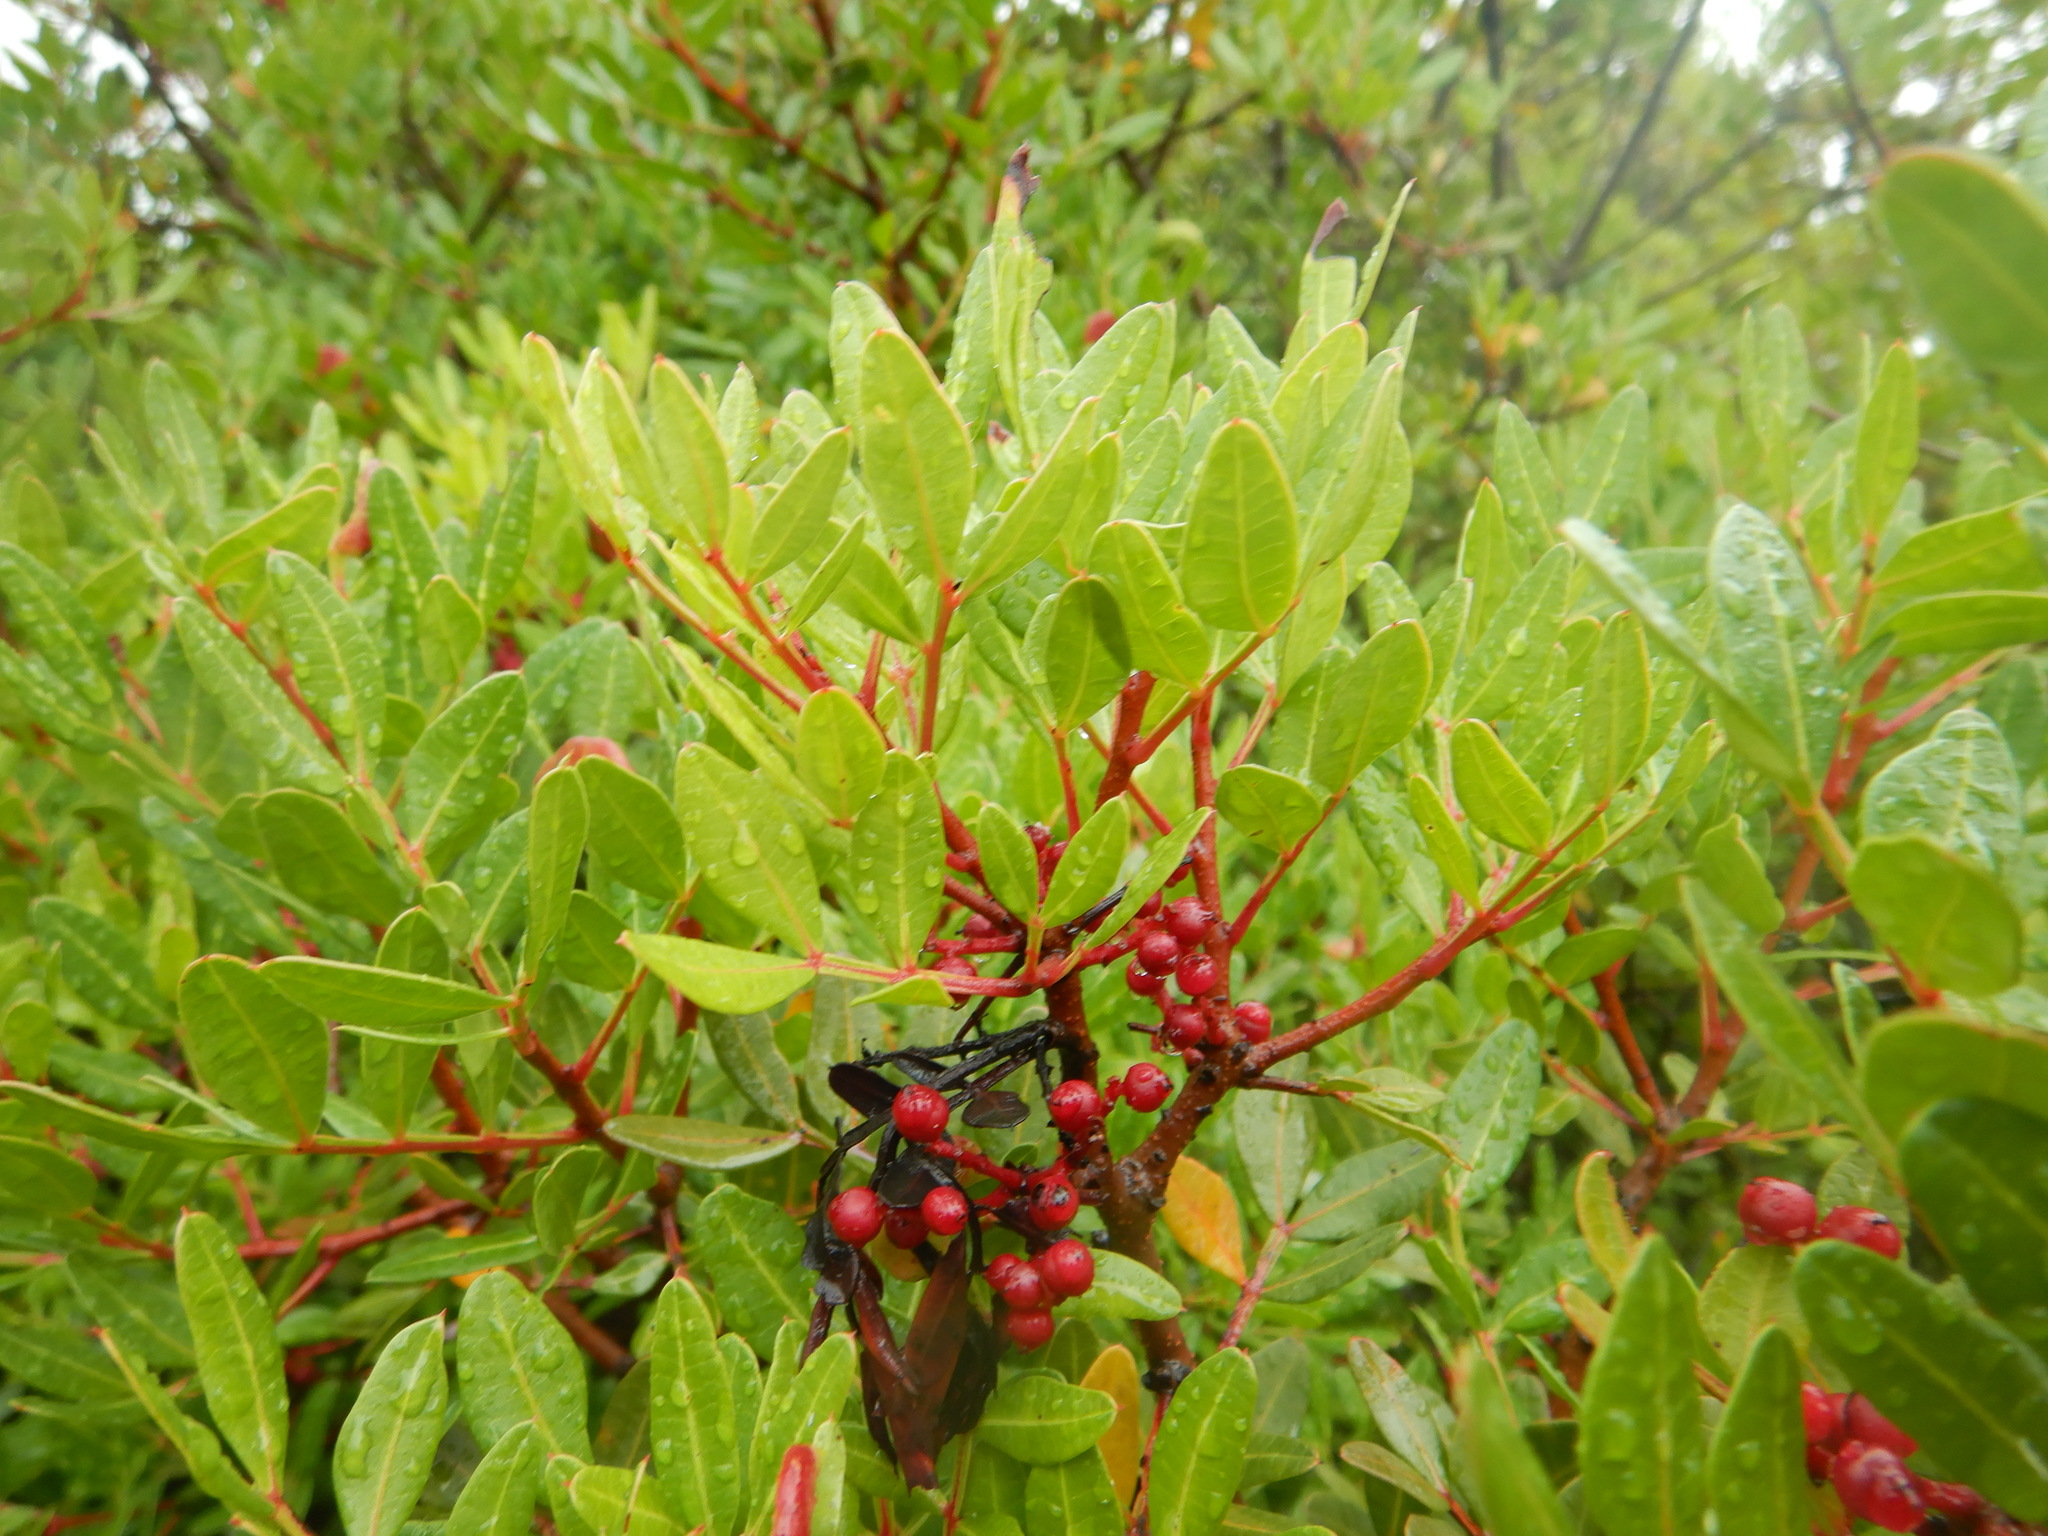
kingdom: Plantae
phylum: Tracheophyta
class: Magnoliopsida
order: Sapindales
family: Anacardiaceae
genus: Pistacia
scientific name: Pistacia lentiscus
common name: Lentisk
